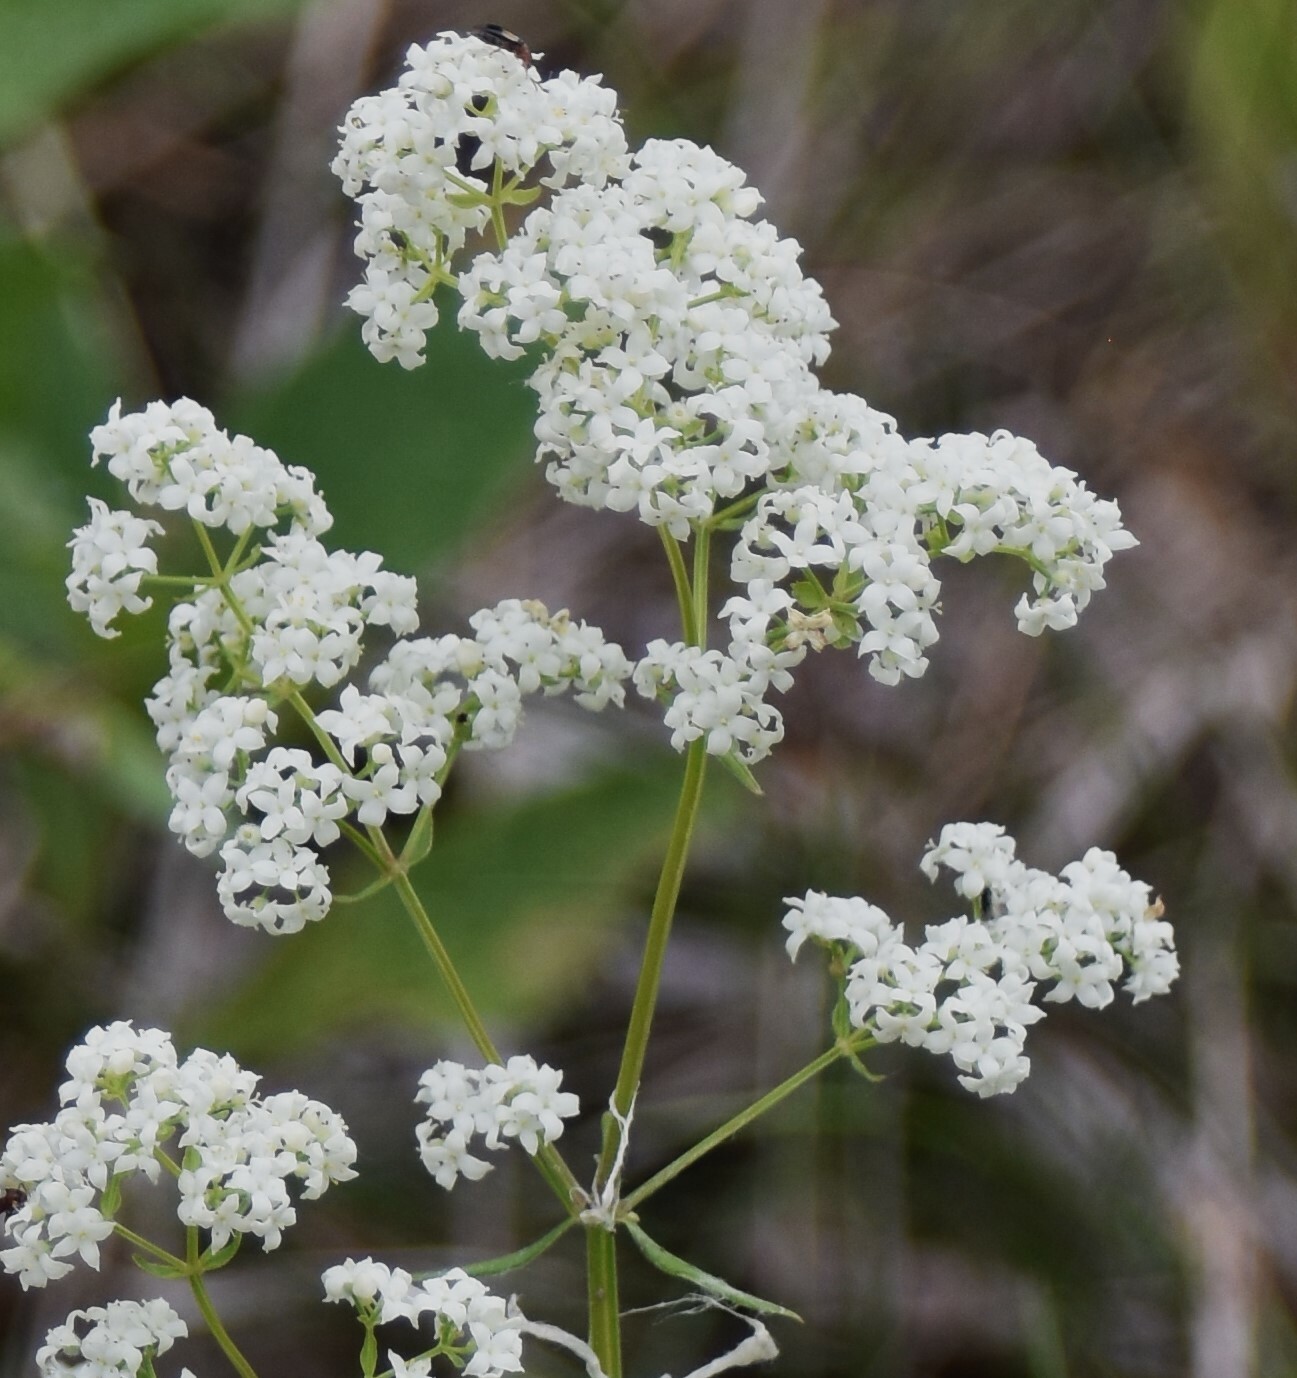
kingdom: Plantae
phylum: Tracheophyta
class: Magnoliopsida
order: Gentianales
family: Rubiaceae
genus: Galium
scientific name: Galium boreale
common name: Northern bedstraw
